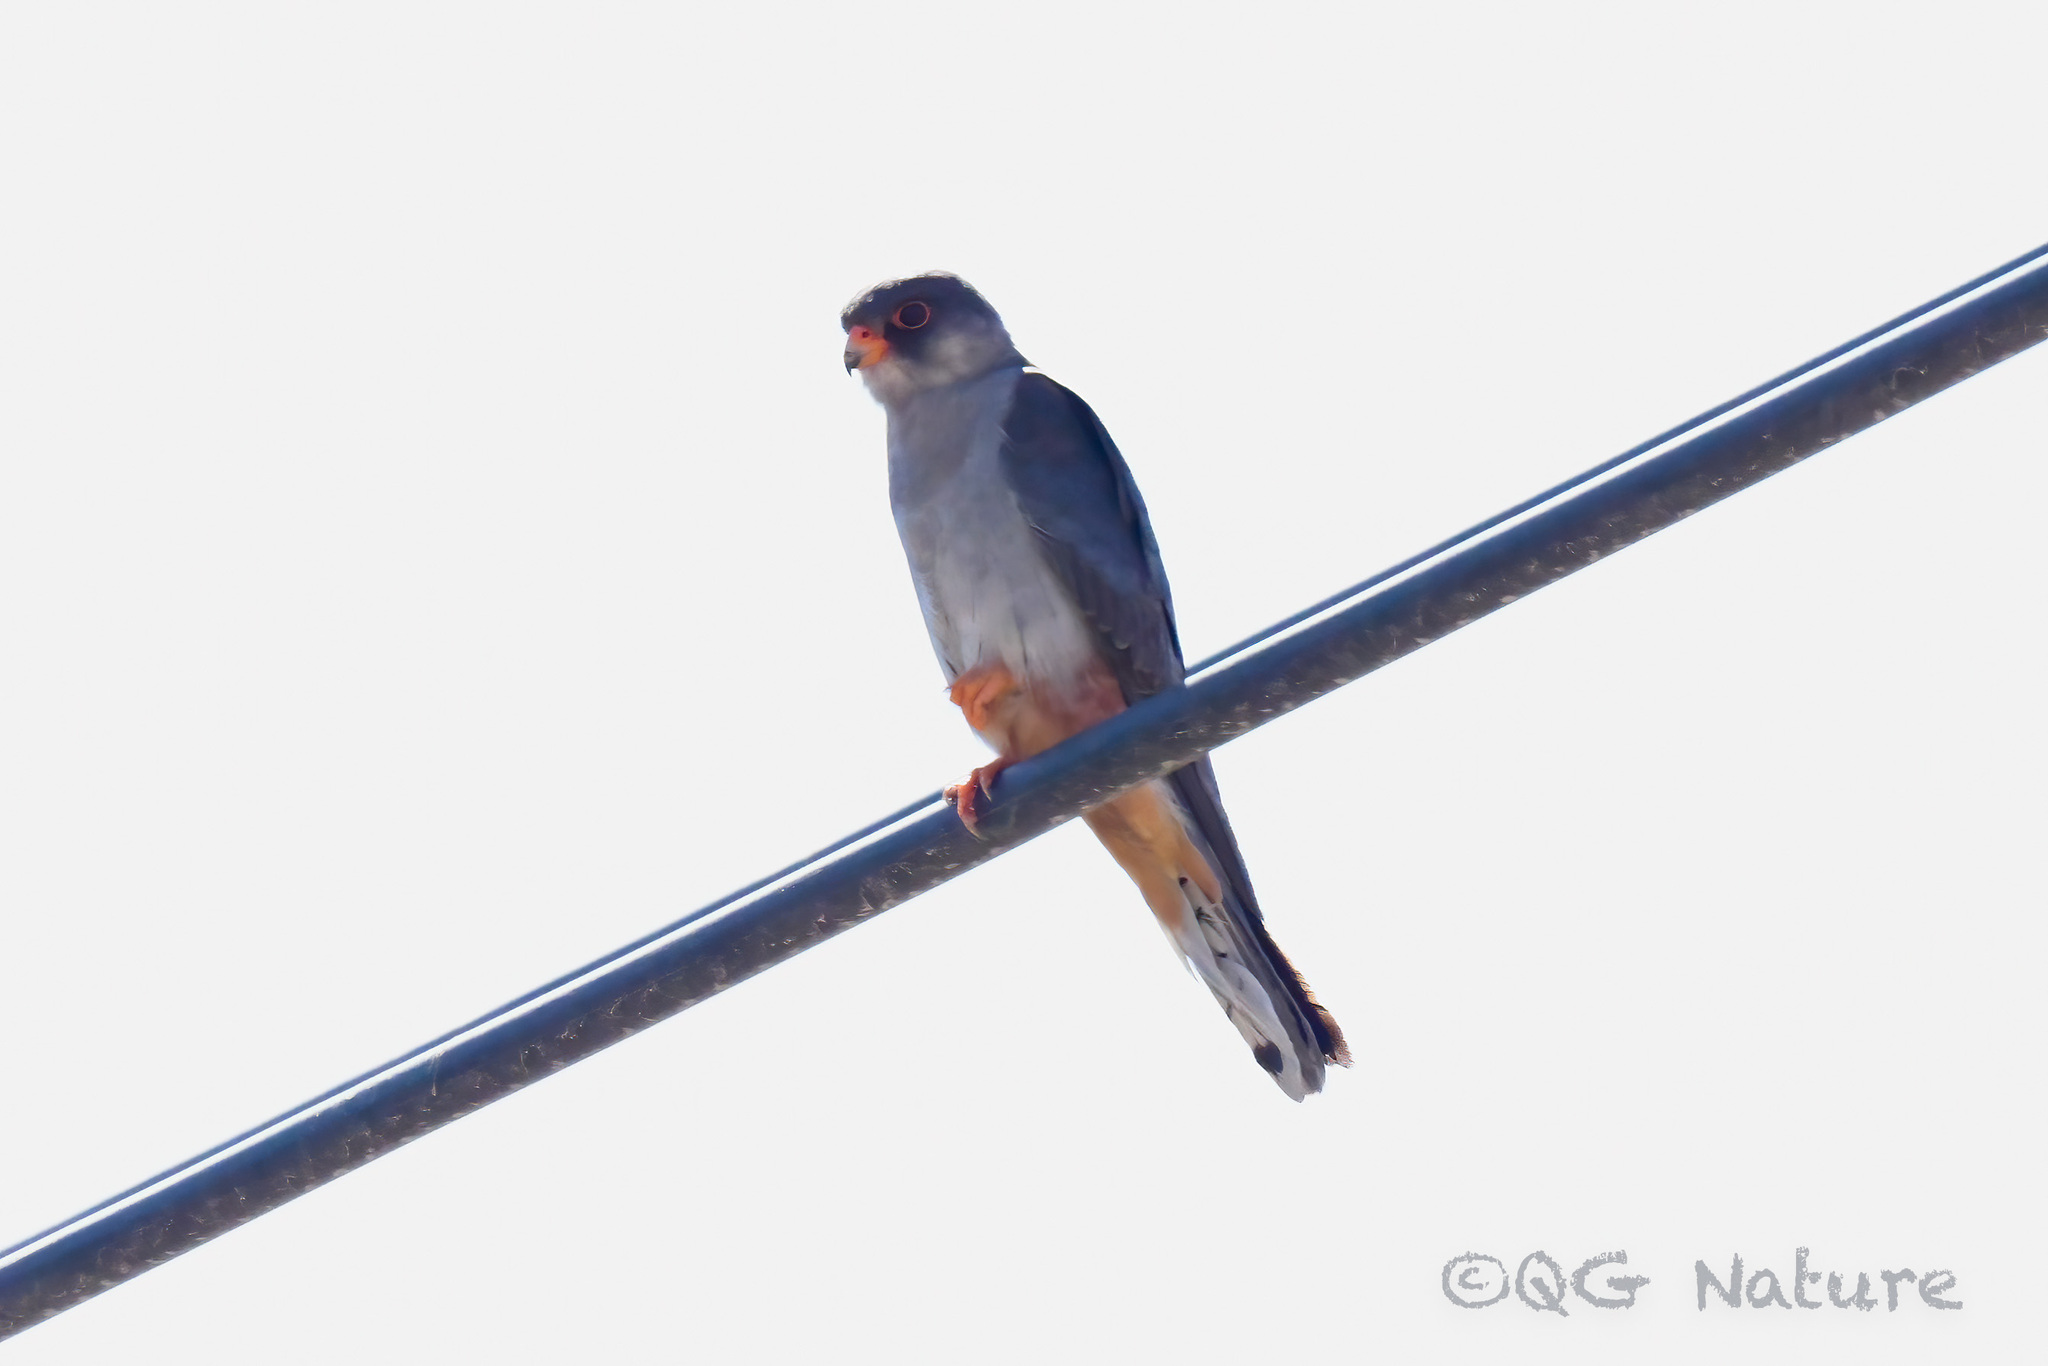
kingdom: Animalia
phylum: Chordata
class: Aves
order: Falconiformes
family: Falconidae
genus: Falco
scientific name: Falco amurensis
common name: Amur falcon
